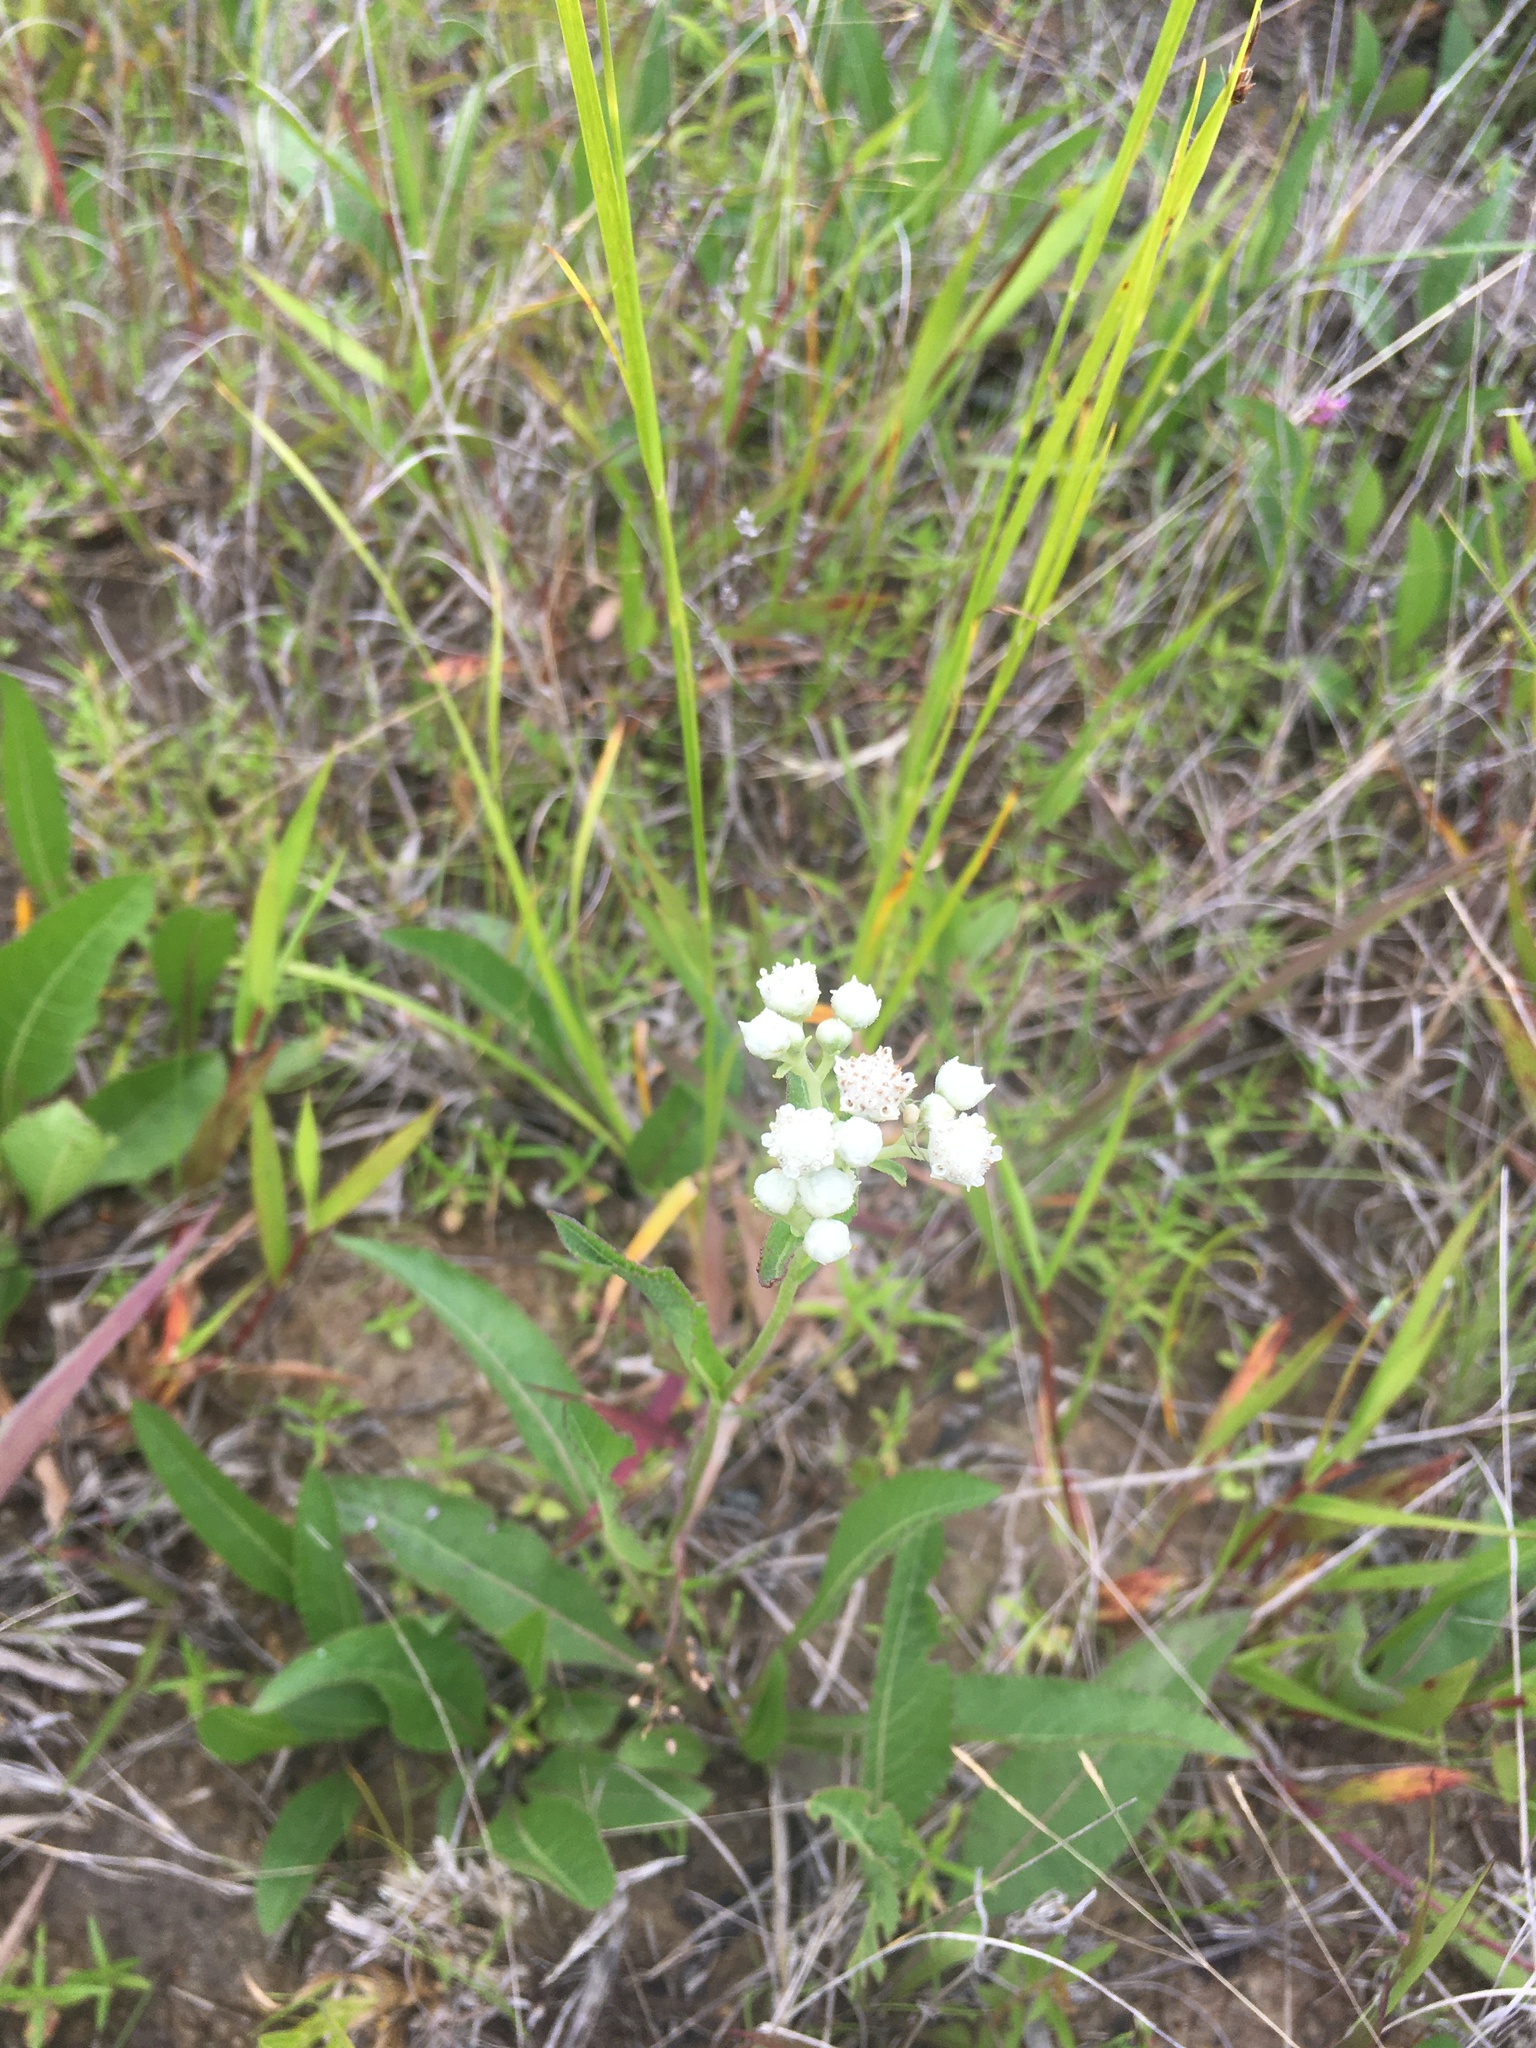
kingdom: Plantae
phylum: Tracheophyta
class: Magnoliopsida
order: Asterales
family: Asteraceae
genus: Parthenium
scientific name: Parthenium integrifolium
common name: American feverfew
